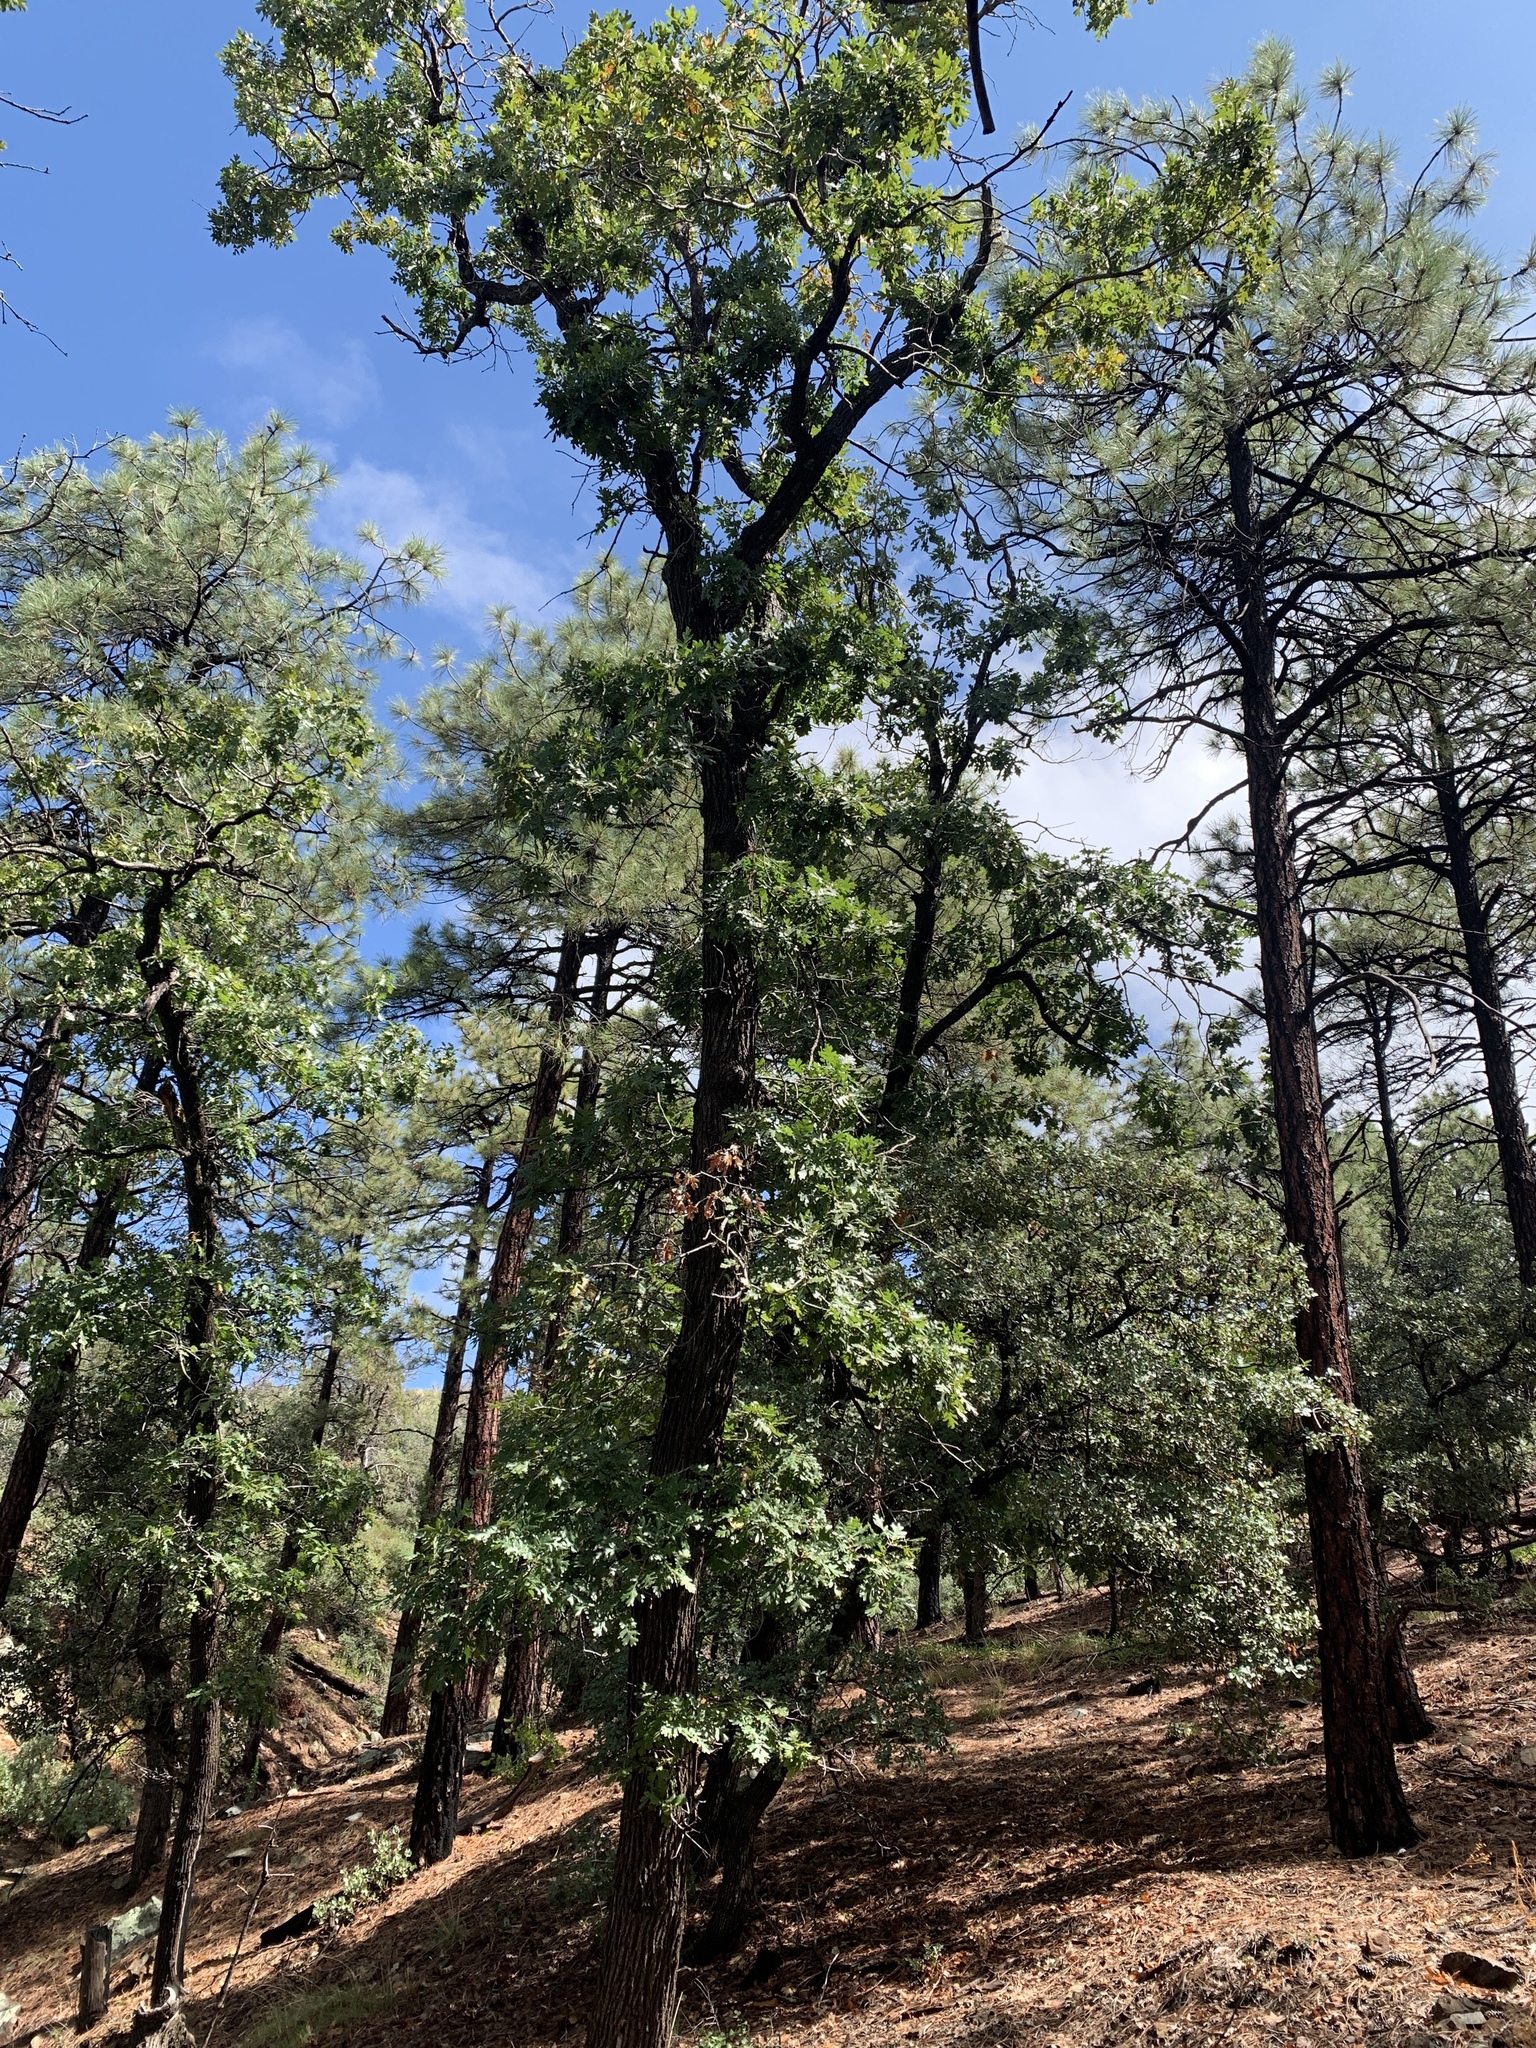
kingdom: Plantae
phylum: Tracheophyta
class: Magnoliopsida
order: Fagales
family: Fagaceae
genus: Quercus
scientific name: Quercus gambelii
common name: Gambel oak
